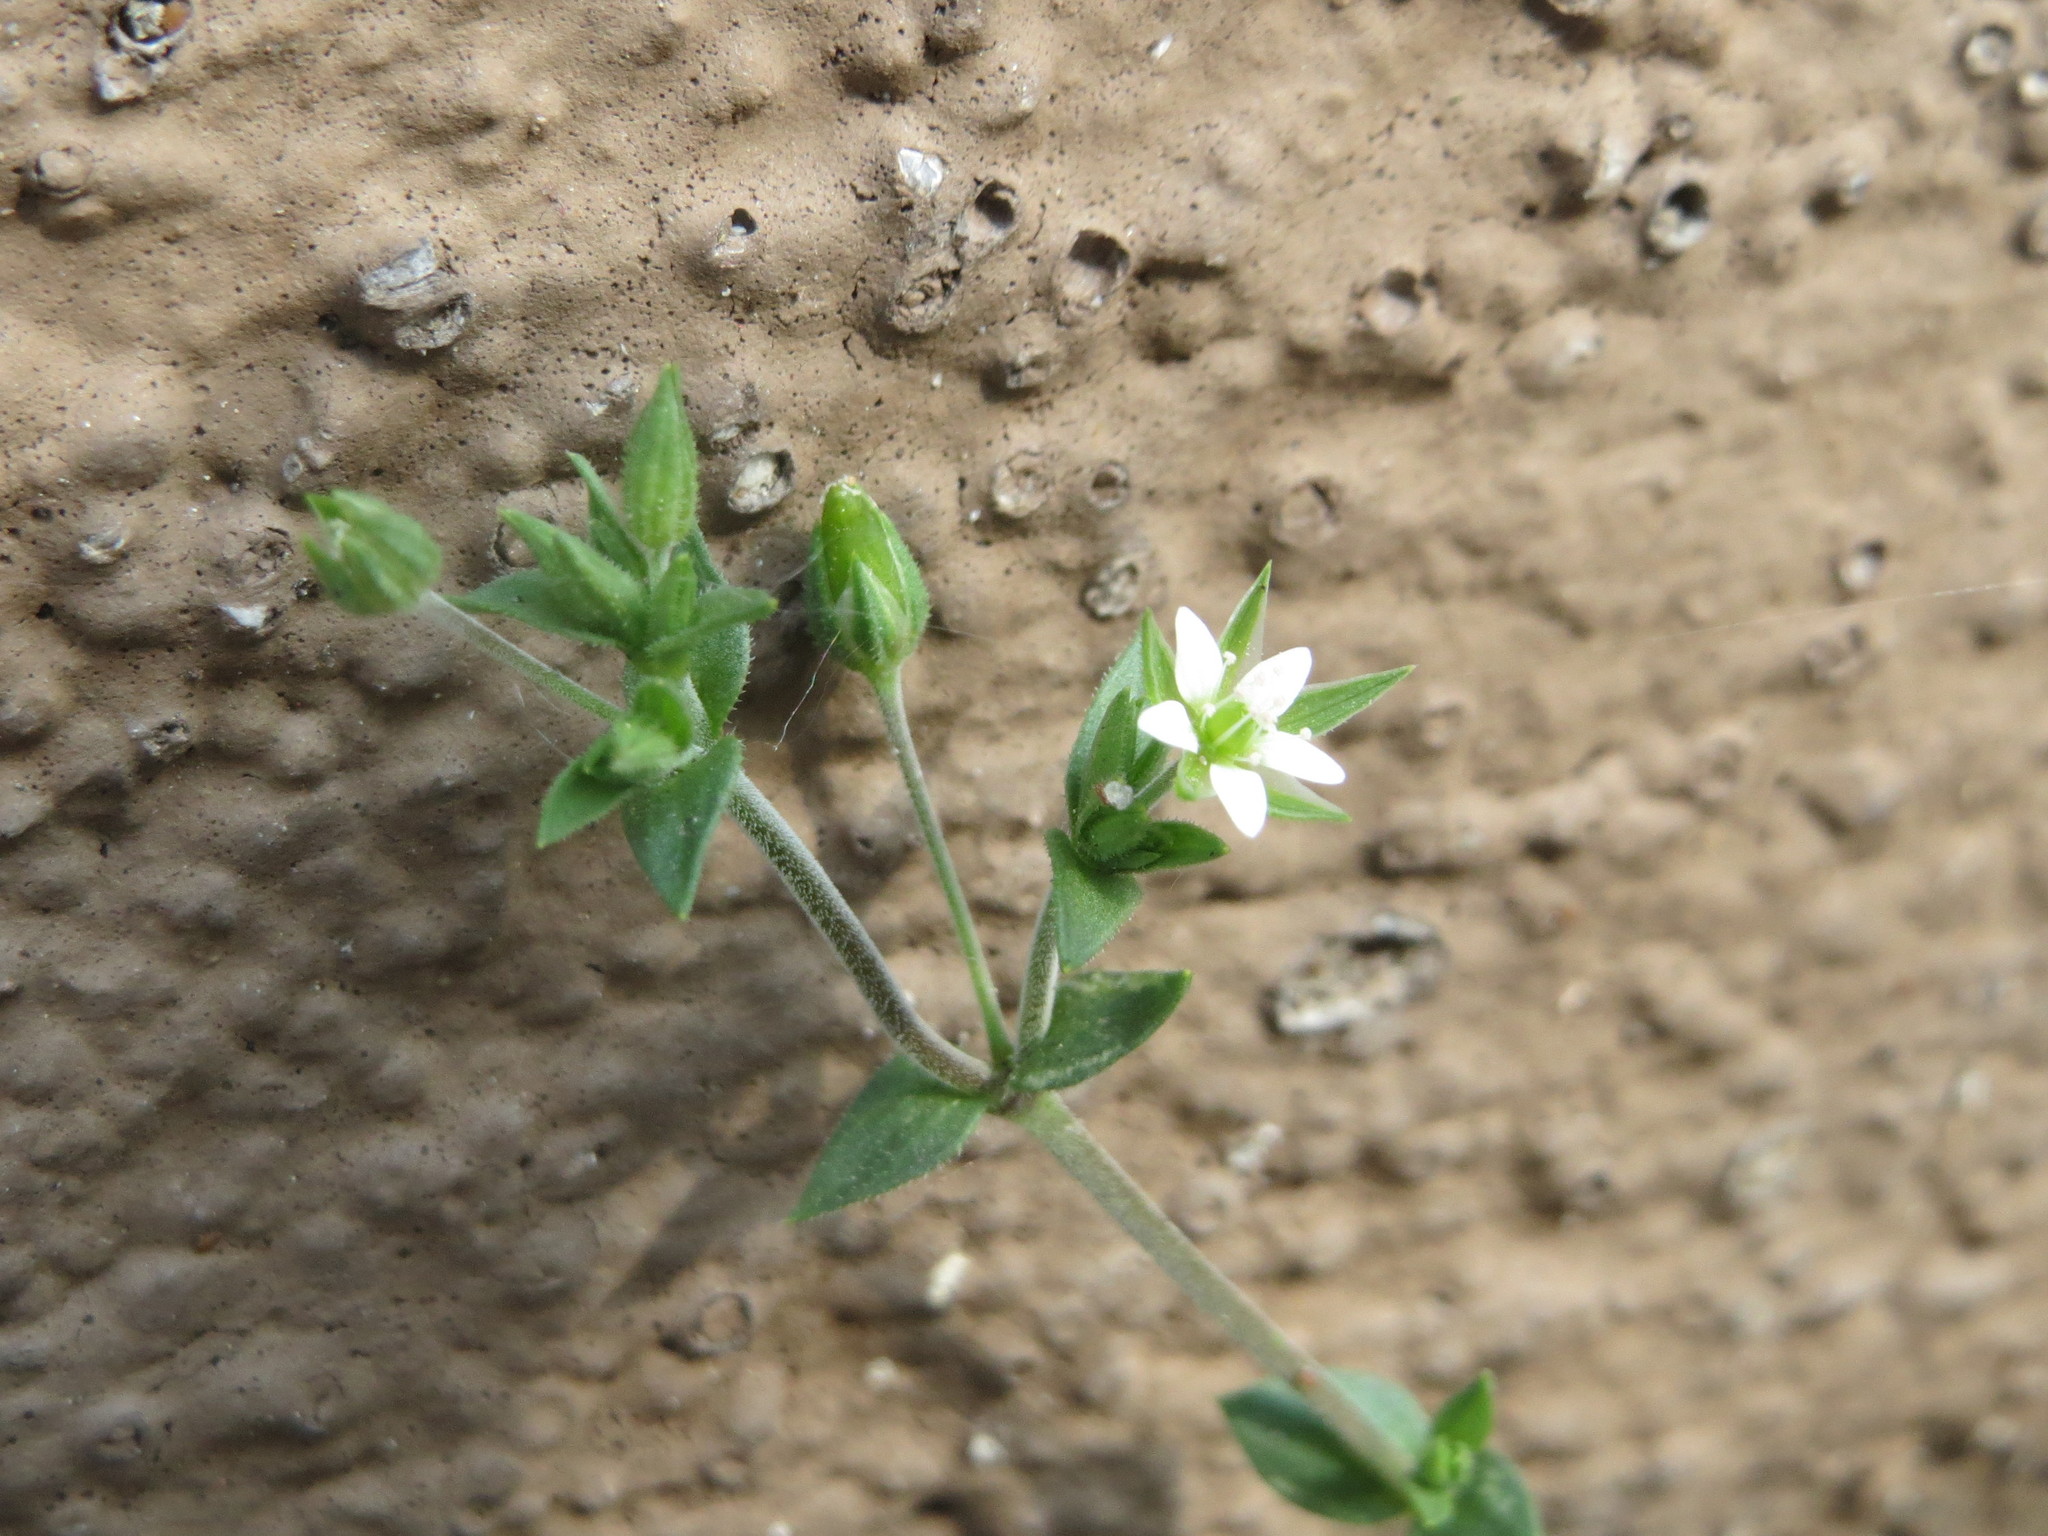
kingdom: Plantae
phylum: Tracheophyta
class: Magnoliopsida
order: Caryophyllales
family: Caryophyllaceae
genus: Arenaria
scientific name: Arenaria serpyllifolia
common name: Thyme-leaved sandwort
